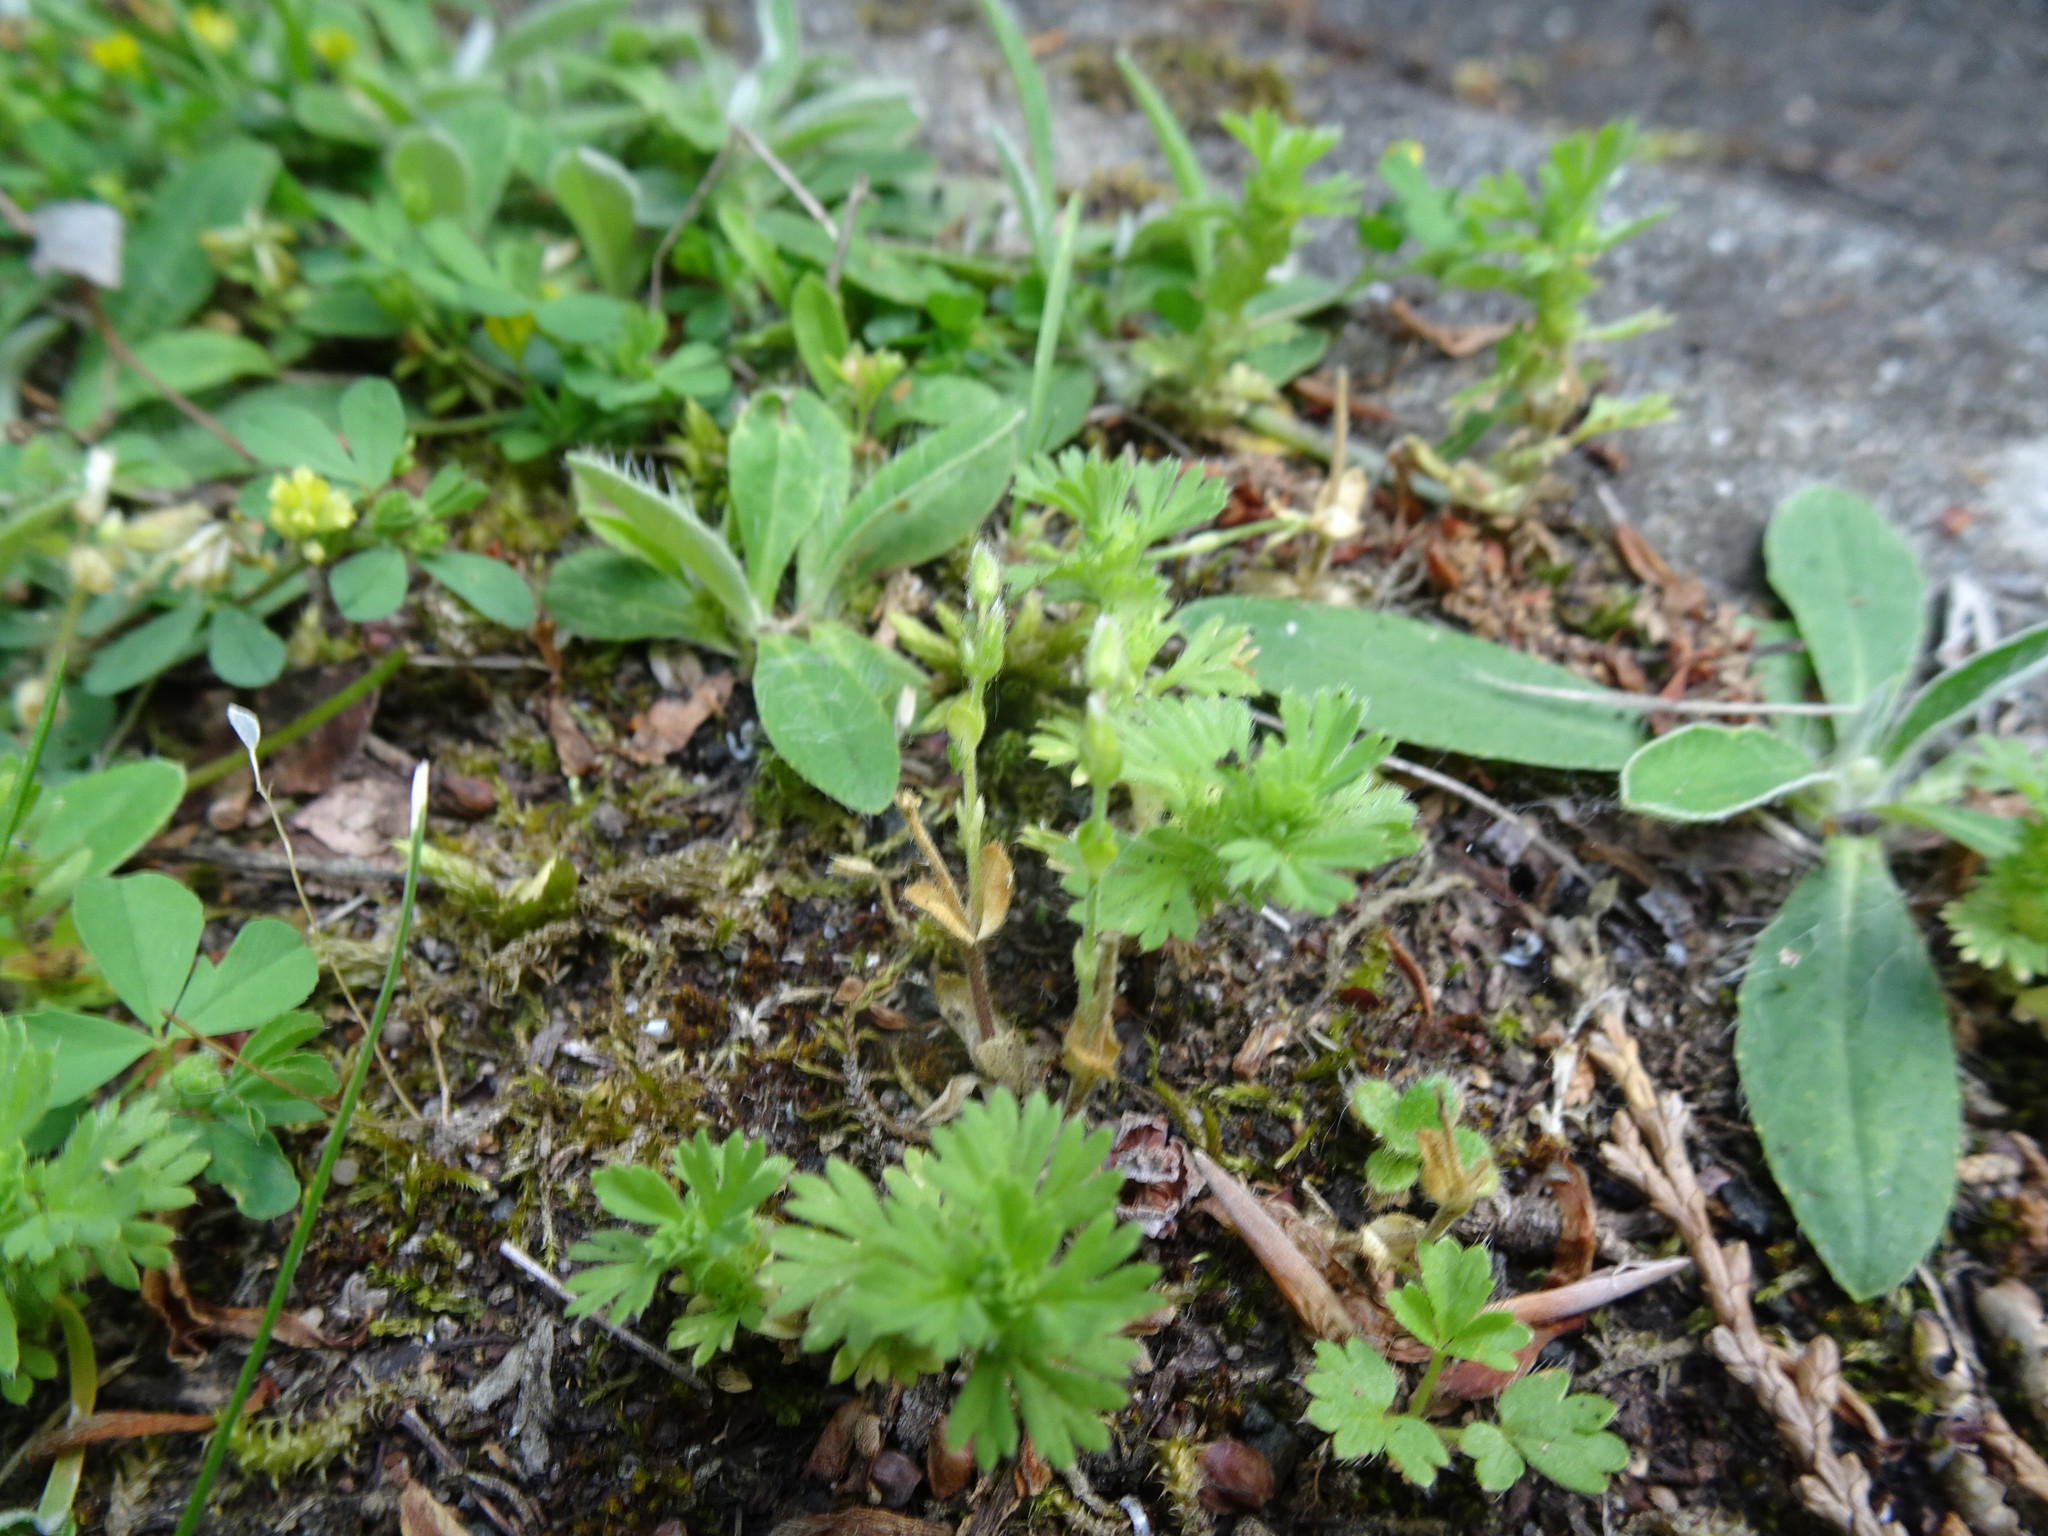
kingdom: Plantae
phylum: Tracheophyta
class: Magnoliopsida
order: Rosales
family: Rosaceae
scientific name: Rosaceae
